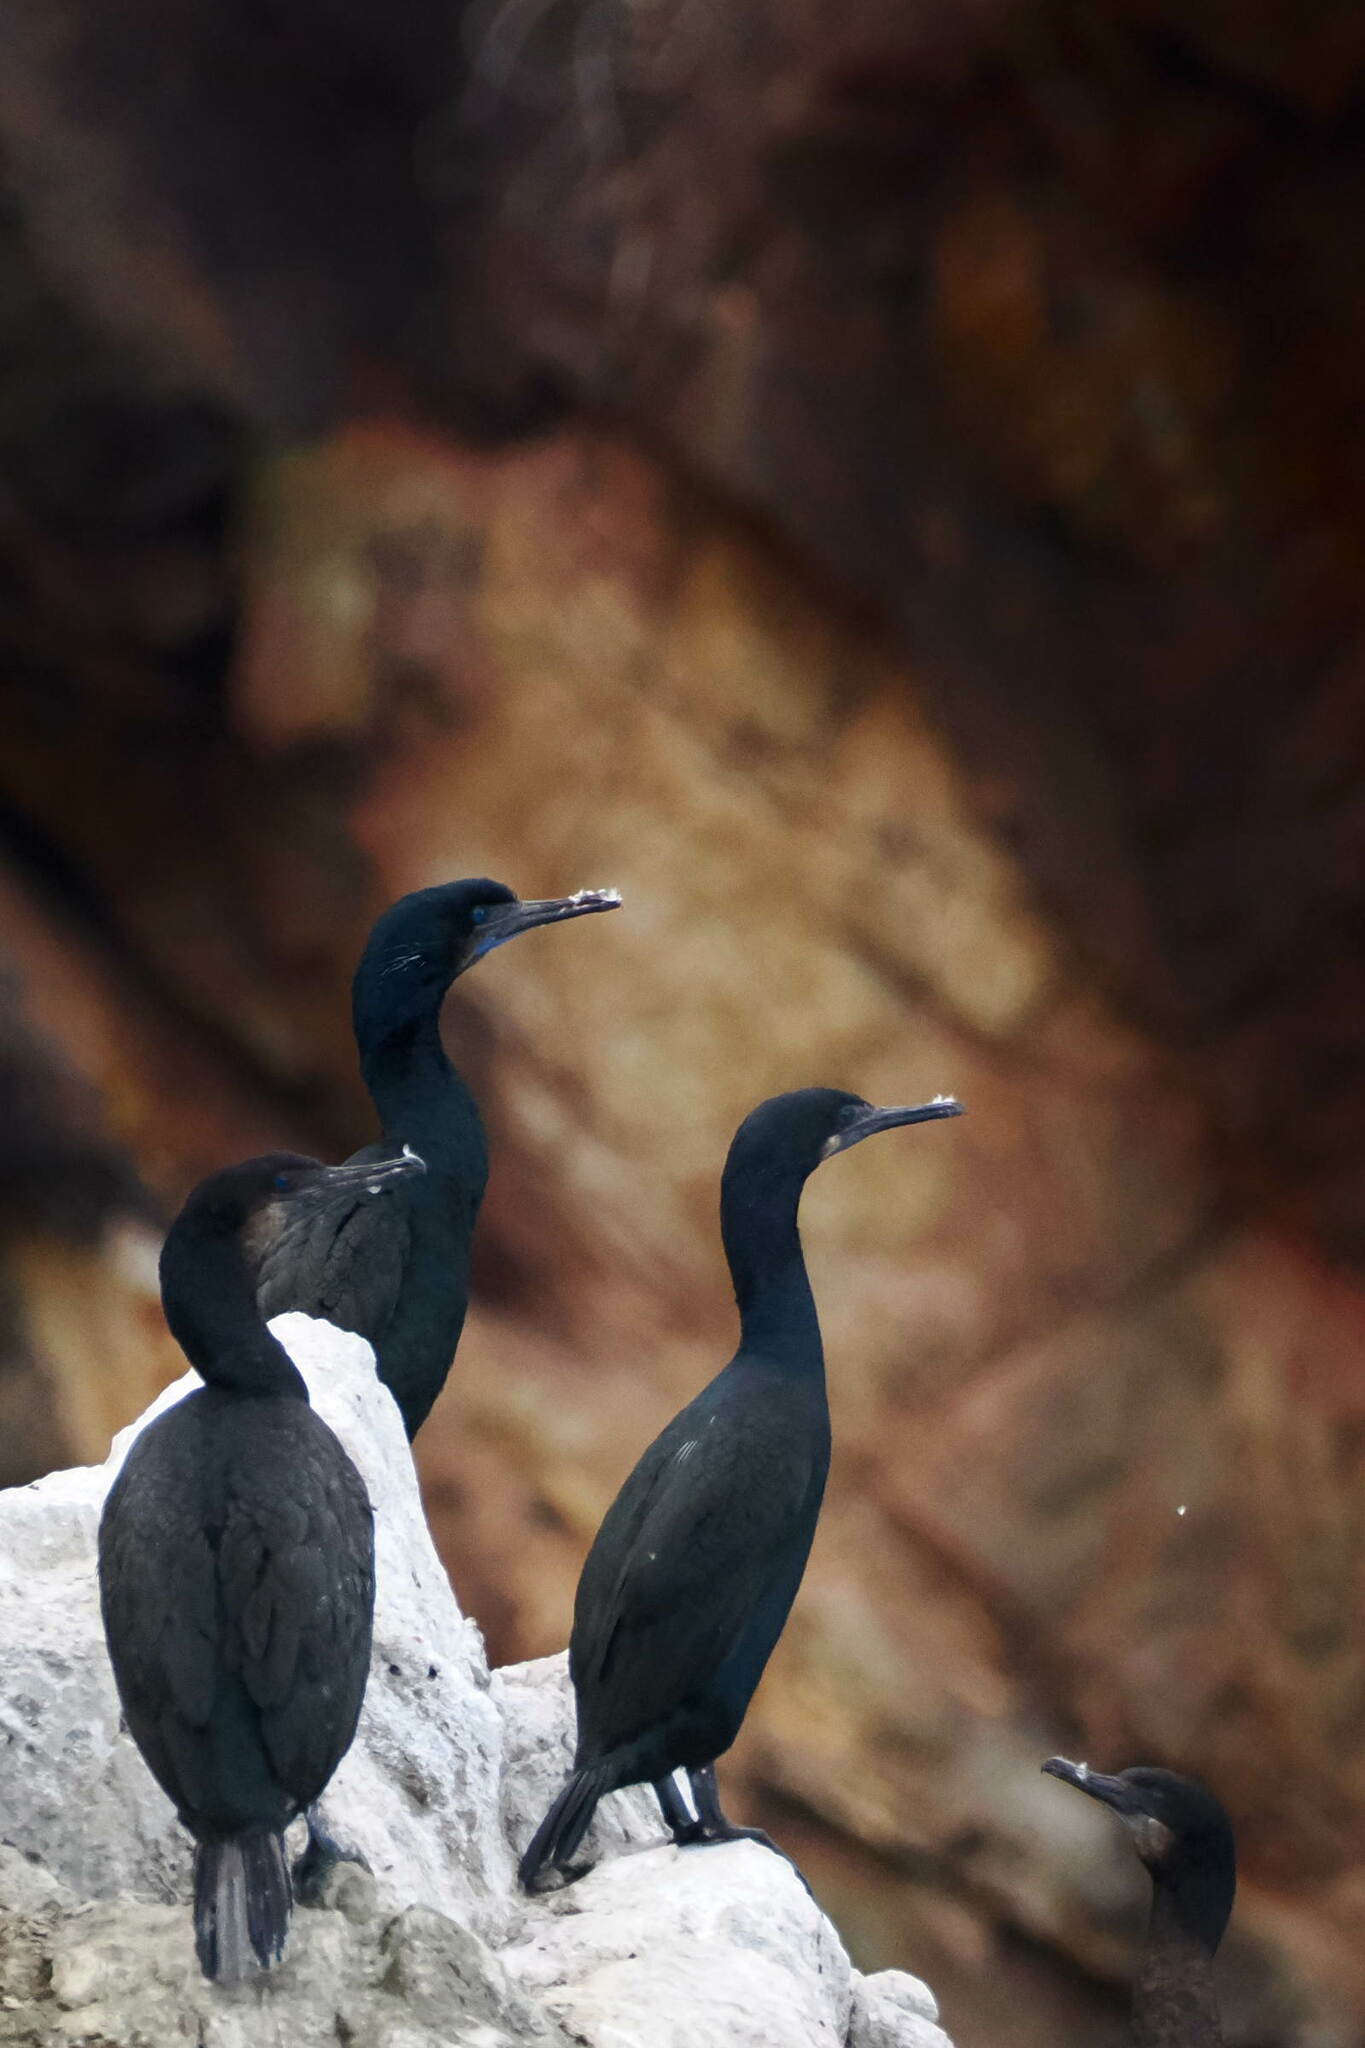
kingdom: Animalia
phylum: Chordata
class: Aves
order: Suliformes
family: Phalacrocoracidae
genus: Urile
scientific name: Urile penicillatus
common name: Brandt's cormorant
